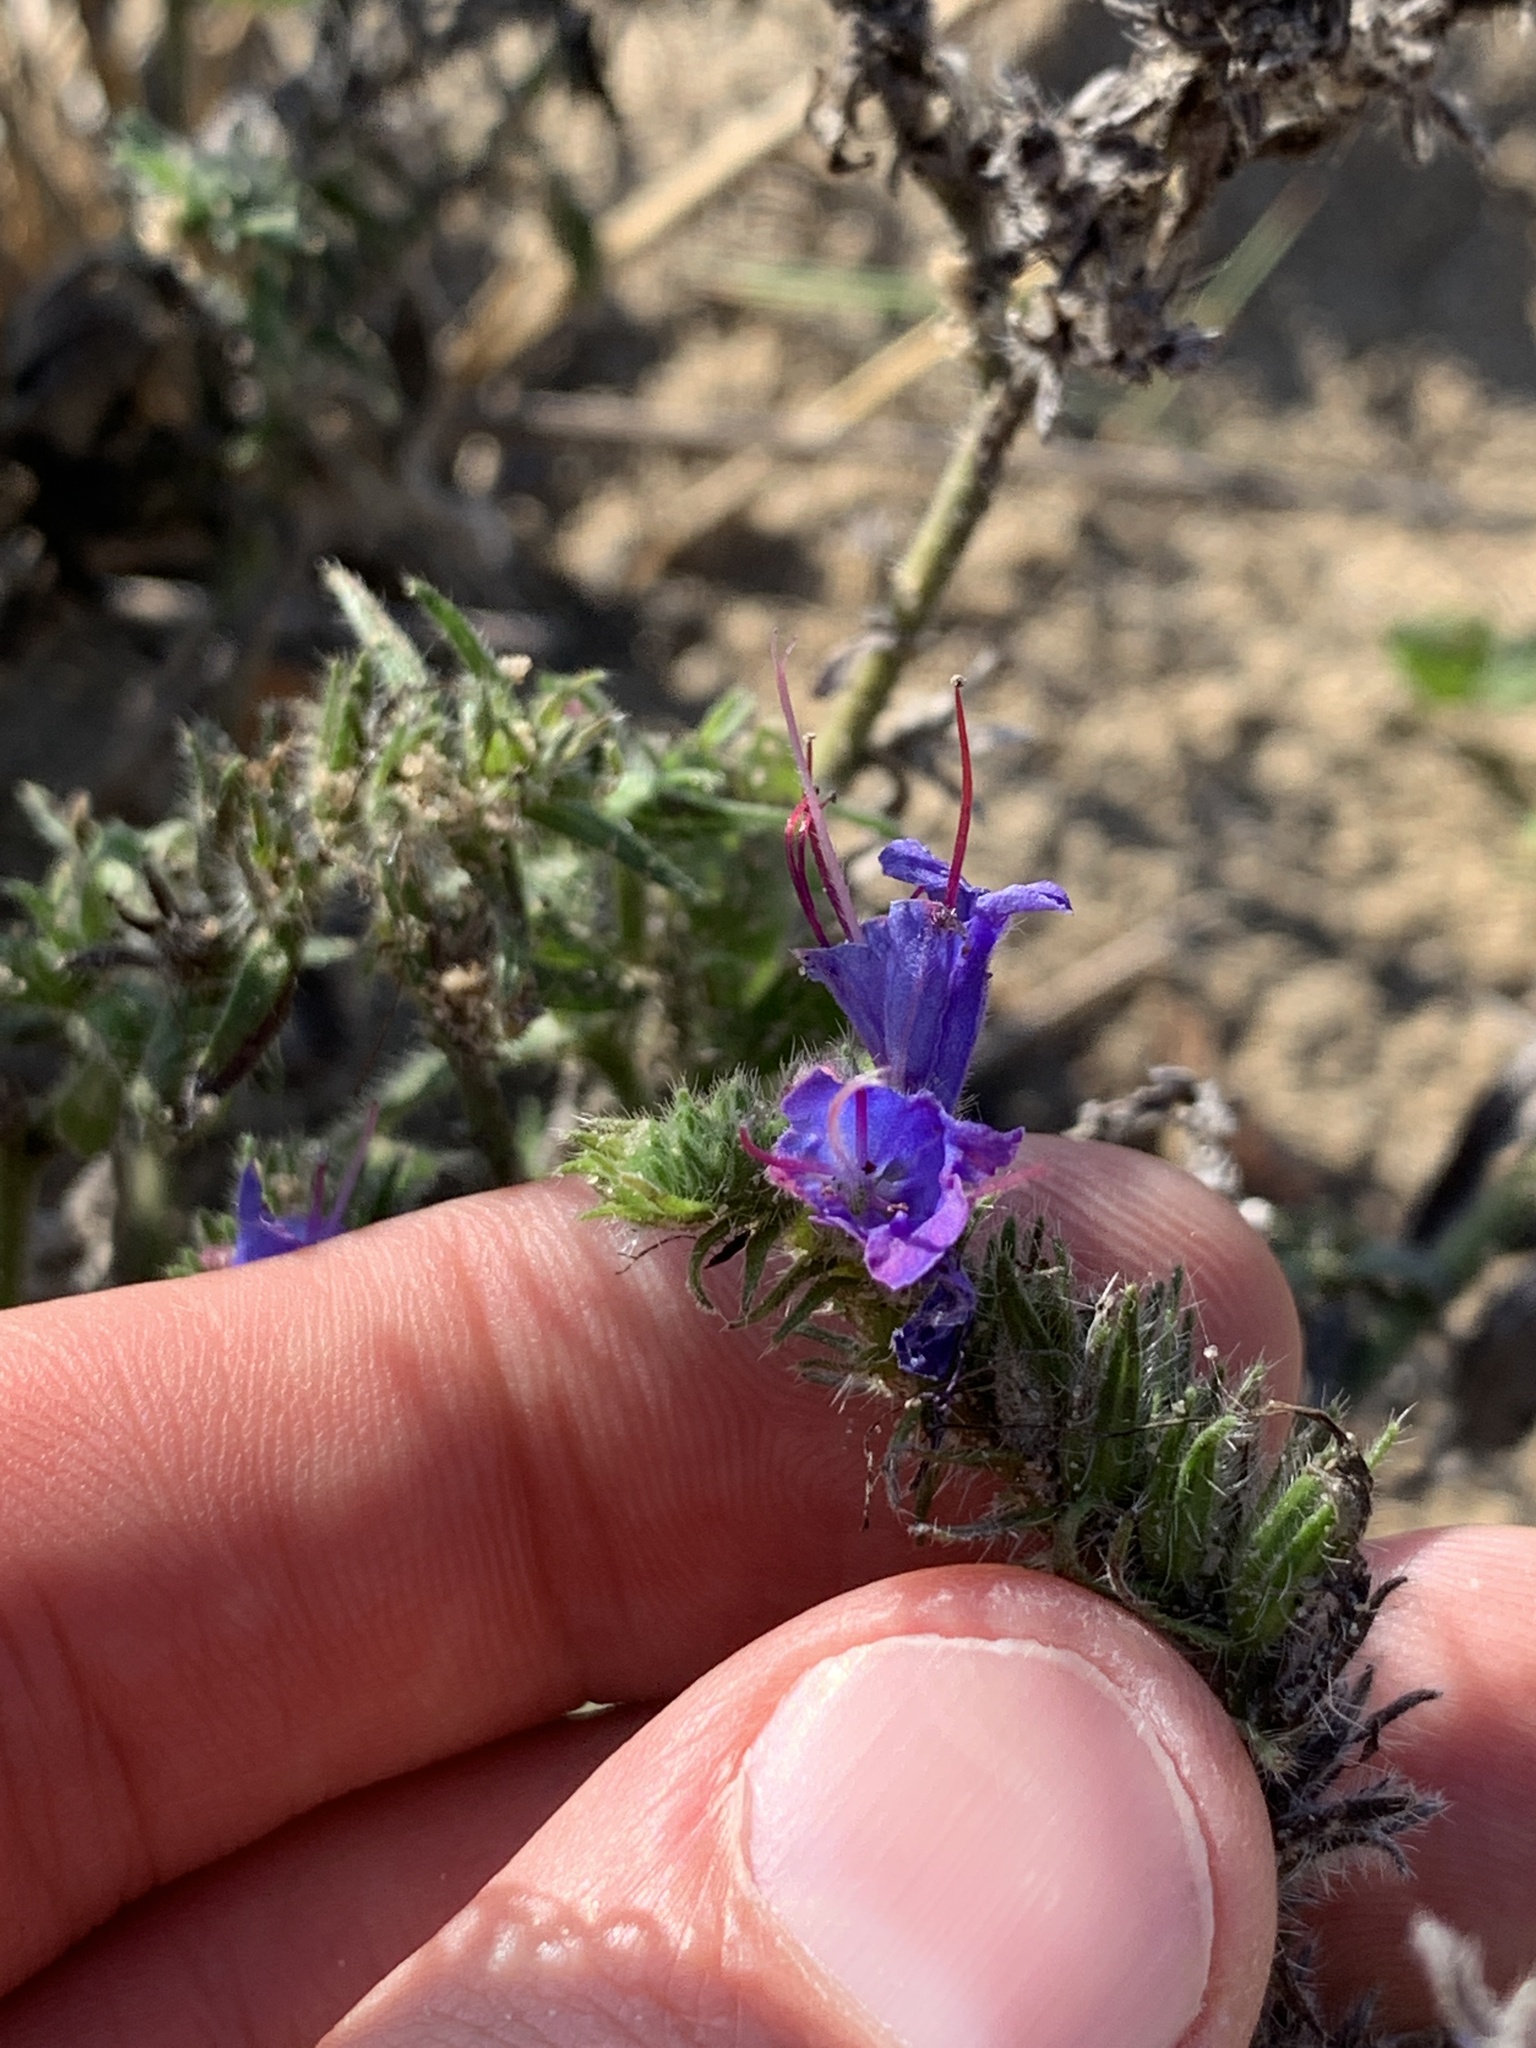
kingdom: Plantae
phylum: Tracheophyta
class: Magnoliopsida
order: Boraginales
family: Boraginaceae
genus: Echium
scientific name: Echium vulgare
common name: Common viper's bugloss
